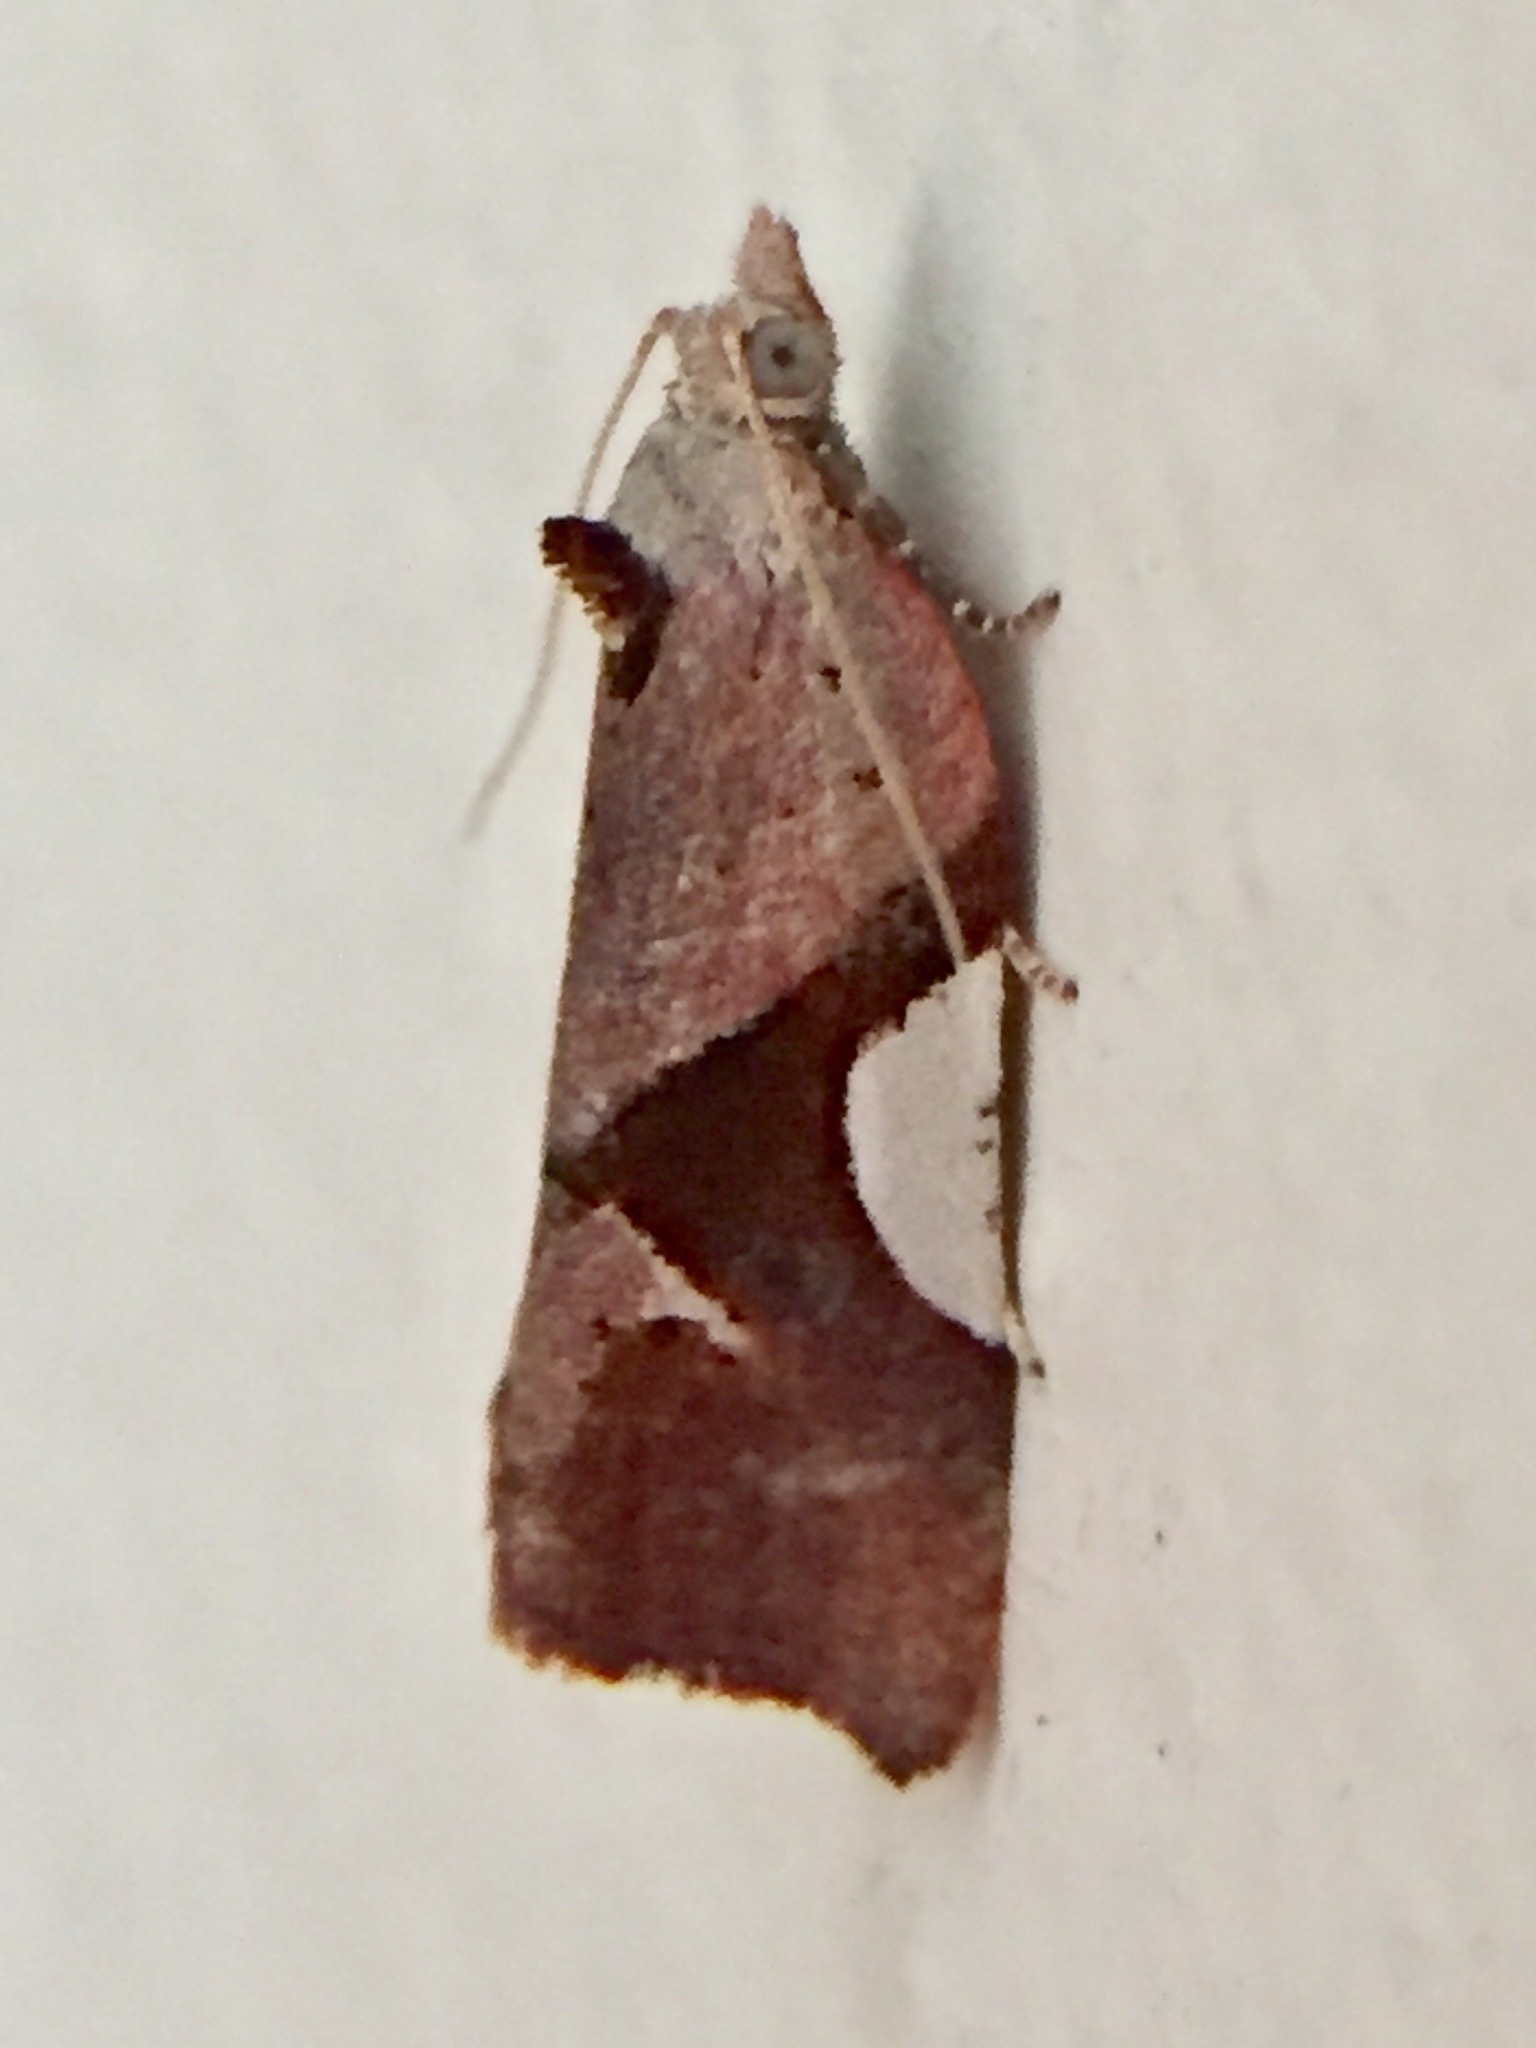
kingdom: Animalia
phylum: Arthropoda
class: Insecta
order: Lepidoptera
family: Tortricidae
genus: Pyrgotis
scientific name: Pyrgotis plagiatana
